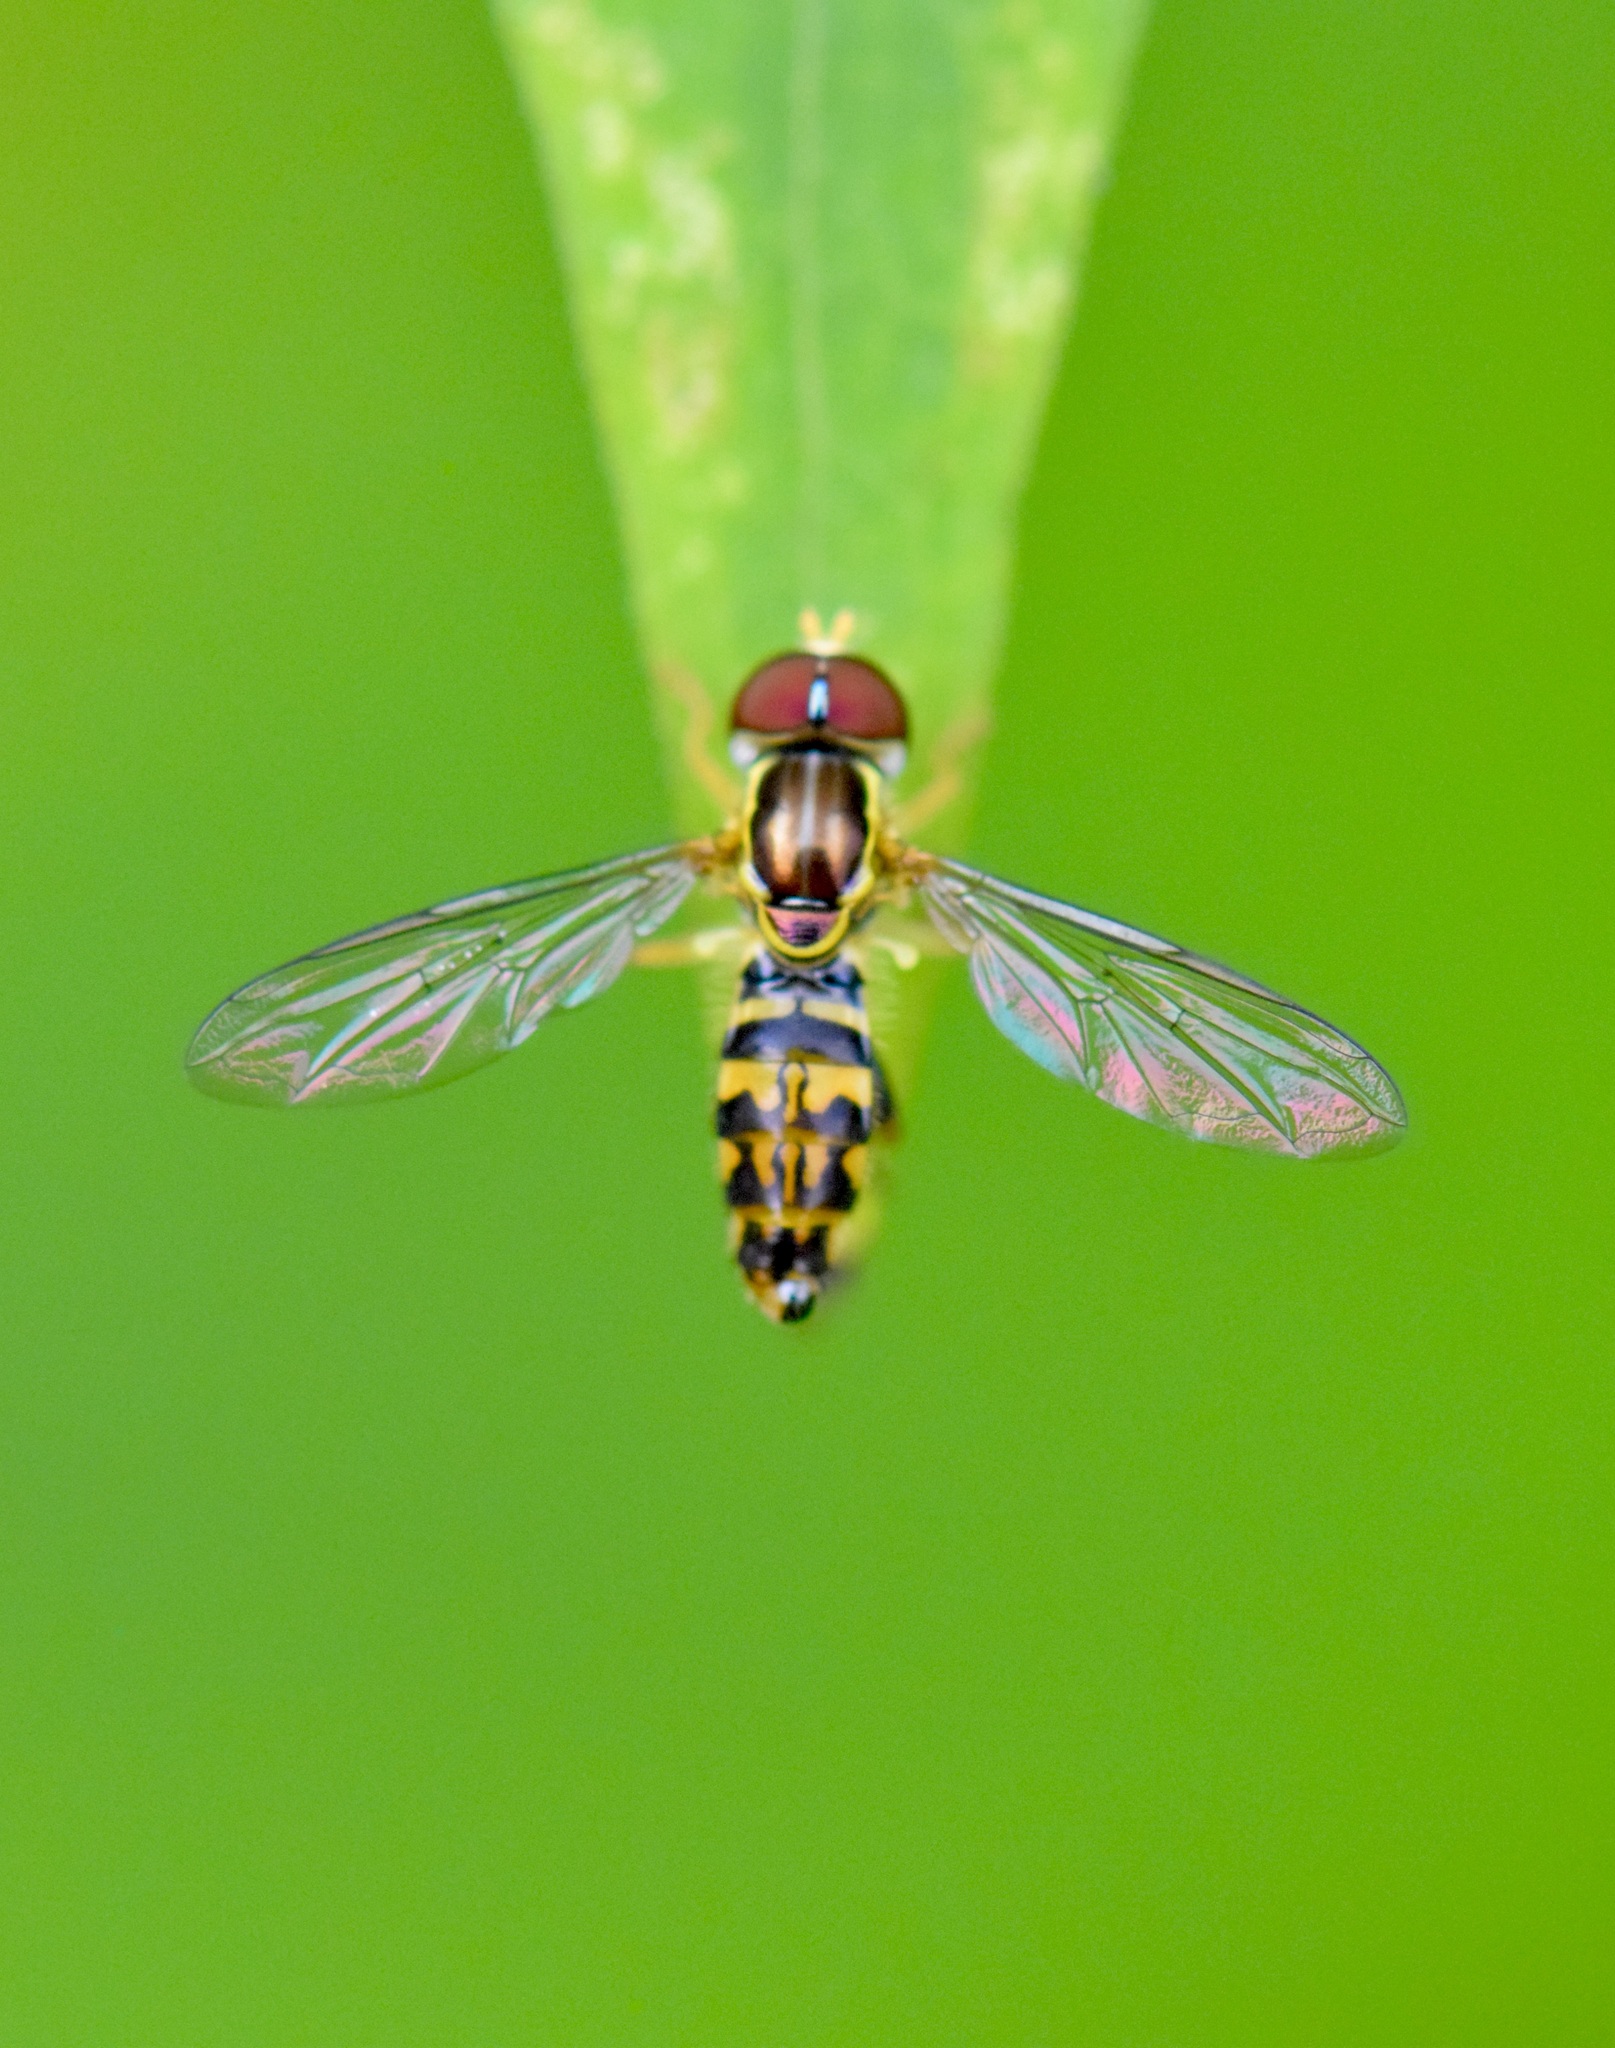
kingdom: Animalia
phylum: Arthropoda
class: Insecta
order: Diptera
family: Syrphidae
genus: Toxomerus
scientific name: Toxomerus geminatus
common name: Eastern calligrapher
